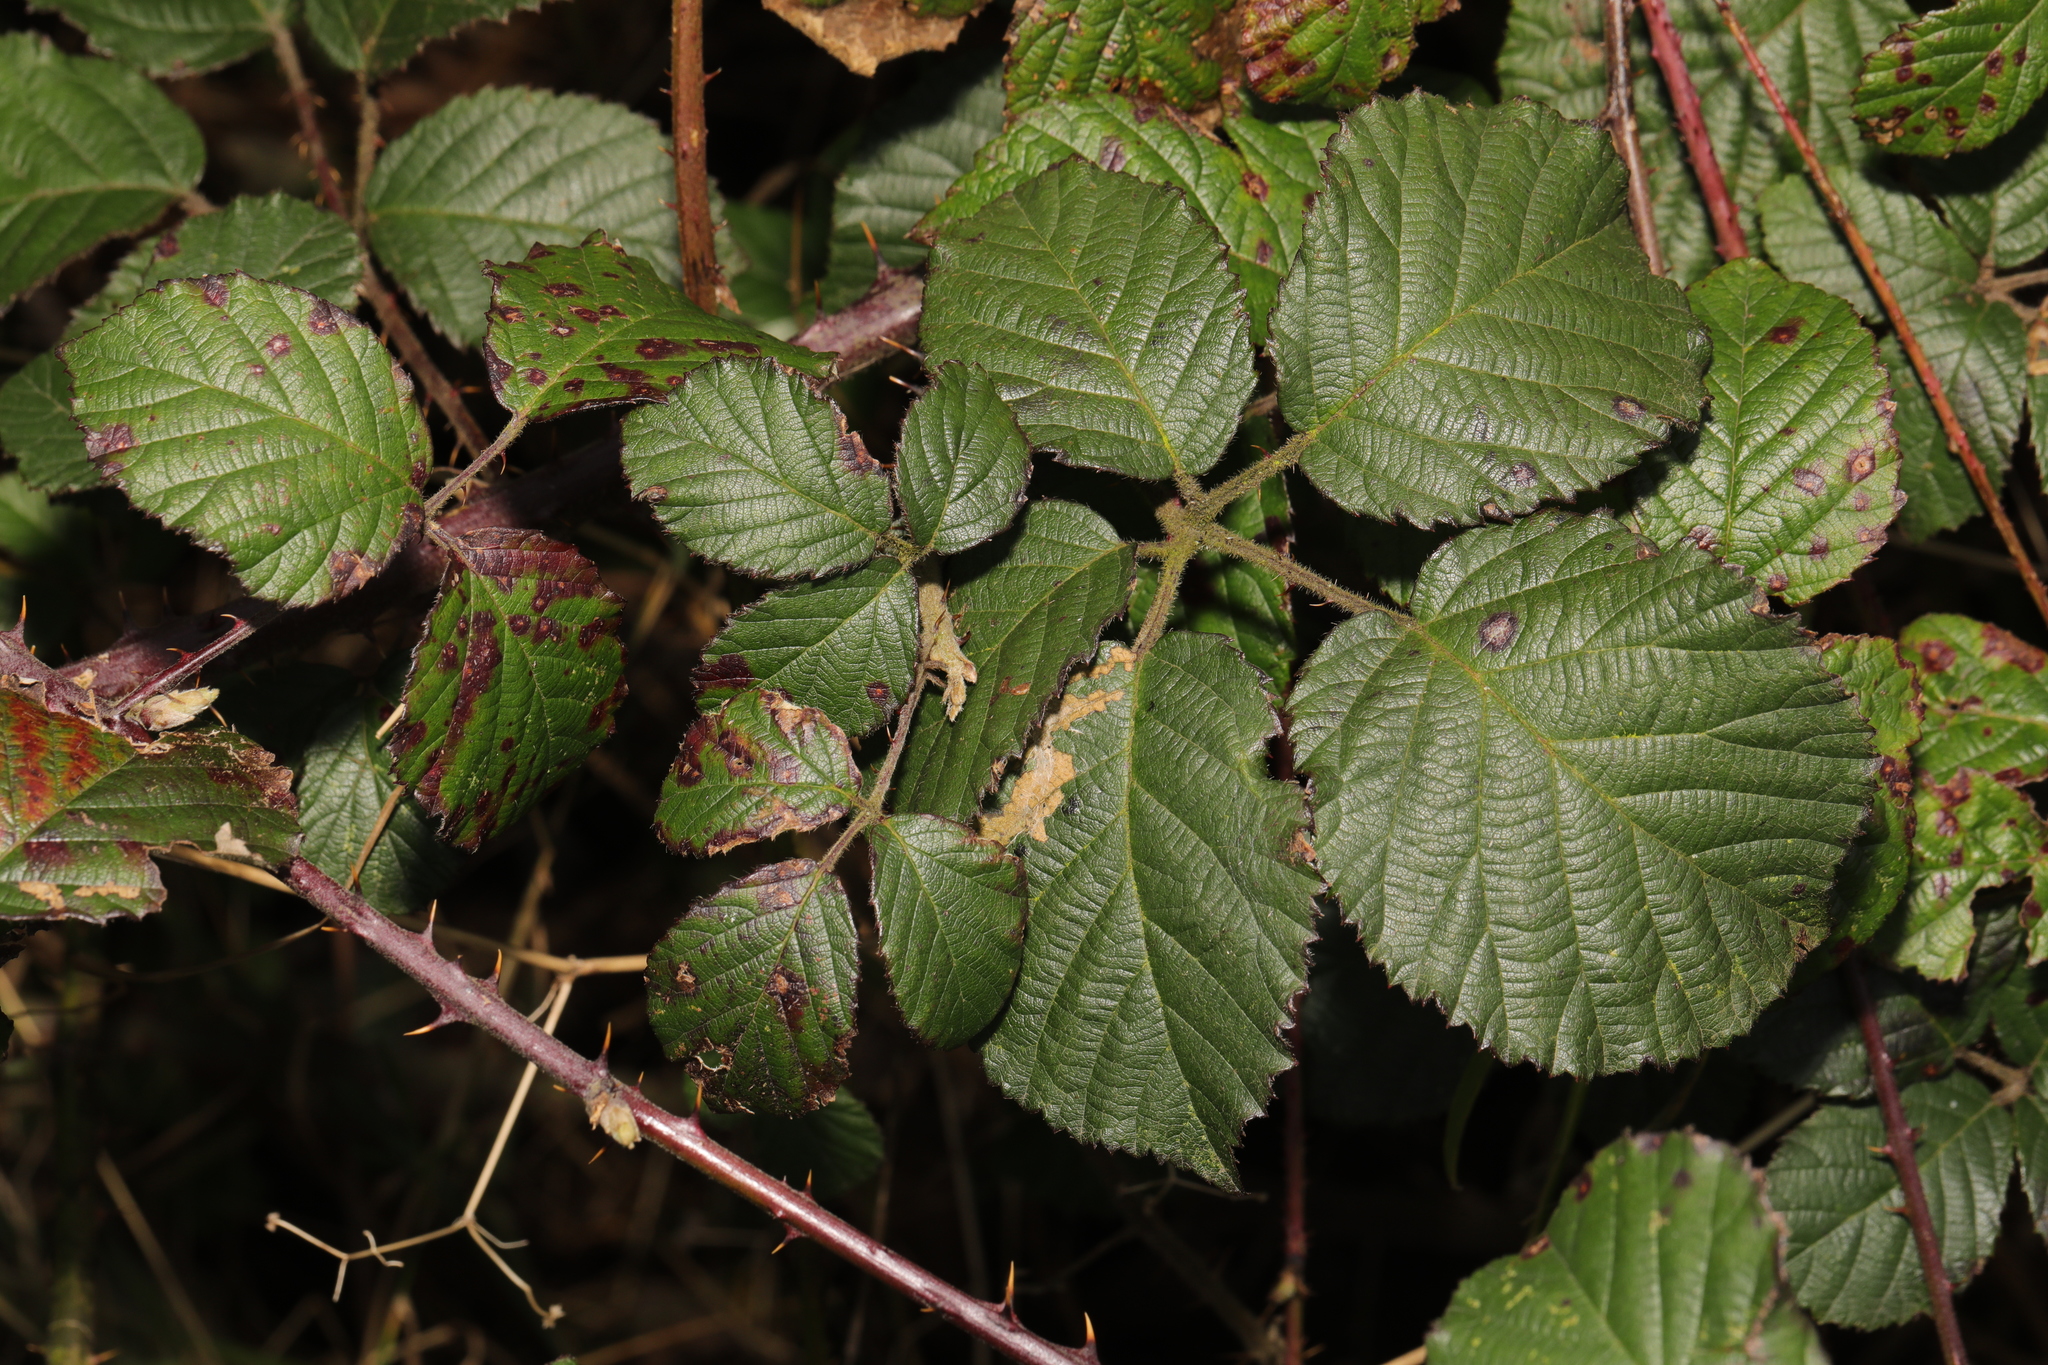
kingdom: Plantae
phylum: Tracheophyta
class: Magnoliopsida
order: Rosales
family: Rosaceae
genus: Rubus
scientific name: Rubus vestitus
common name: European blackberry
